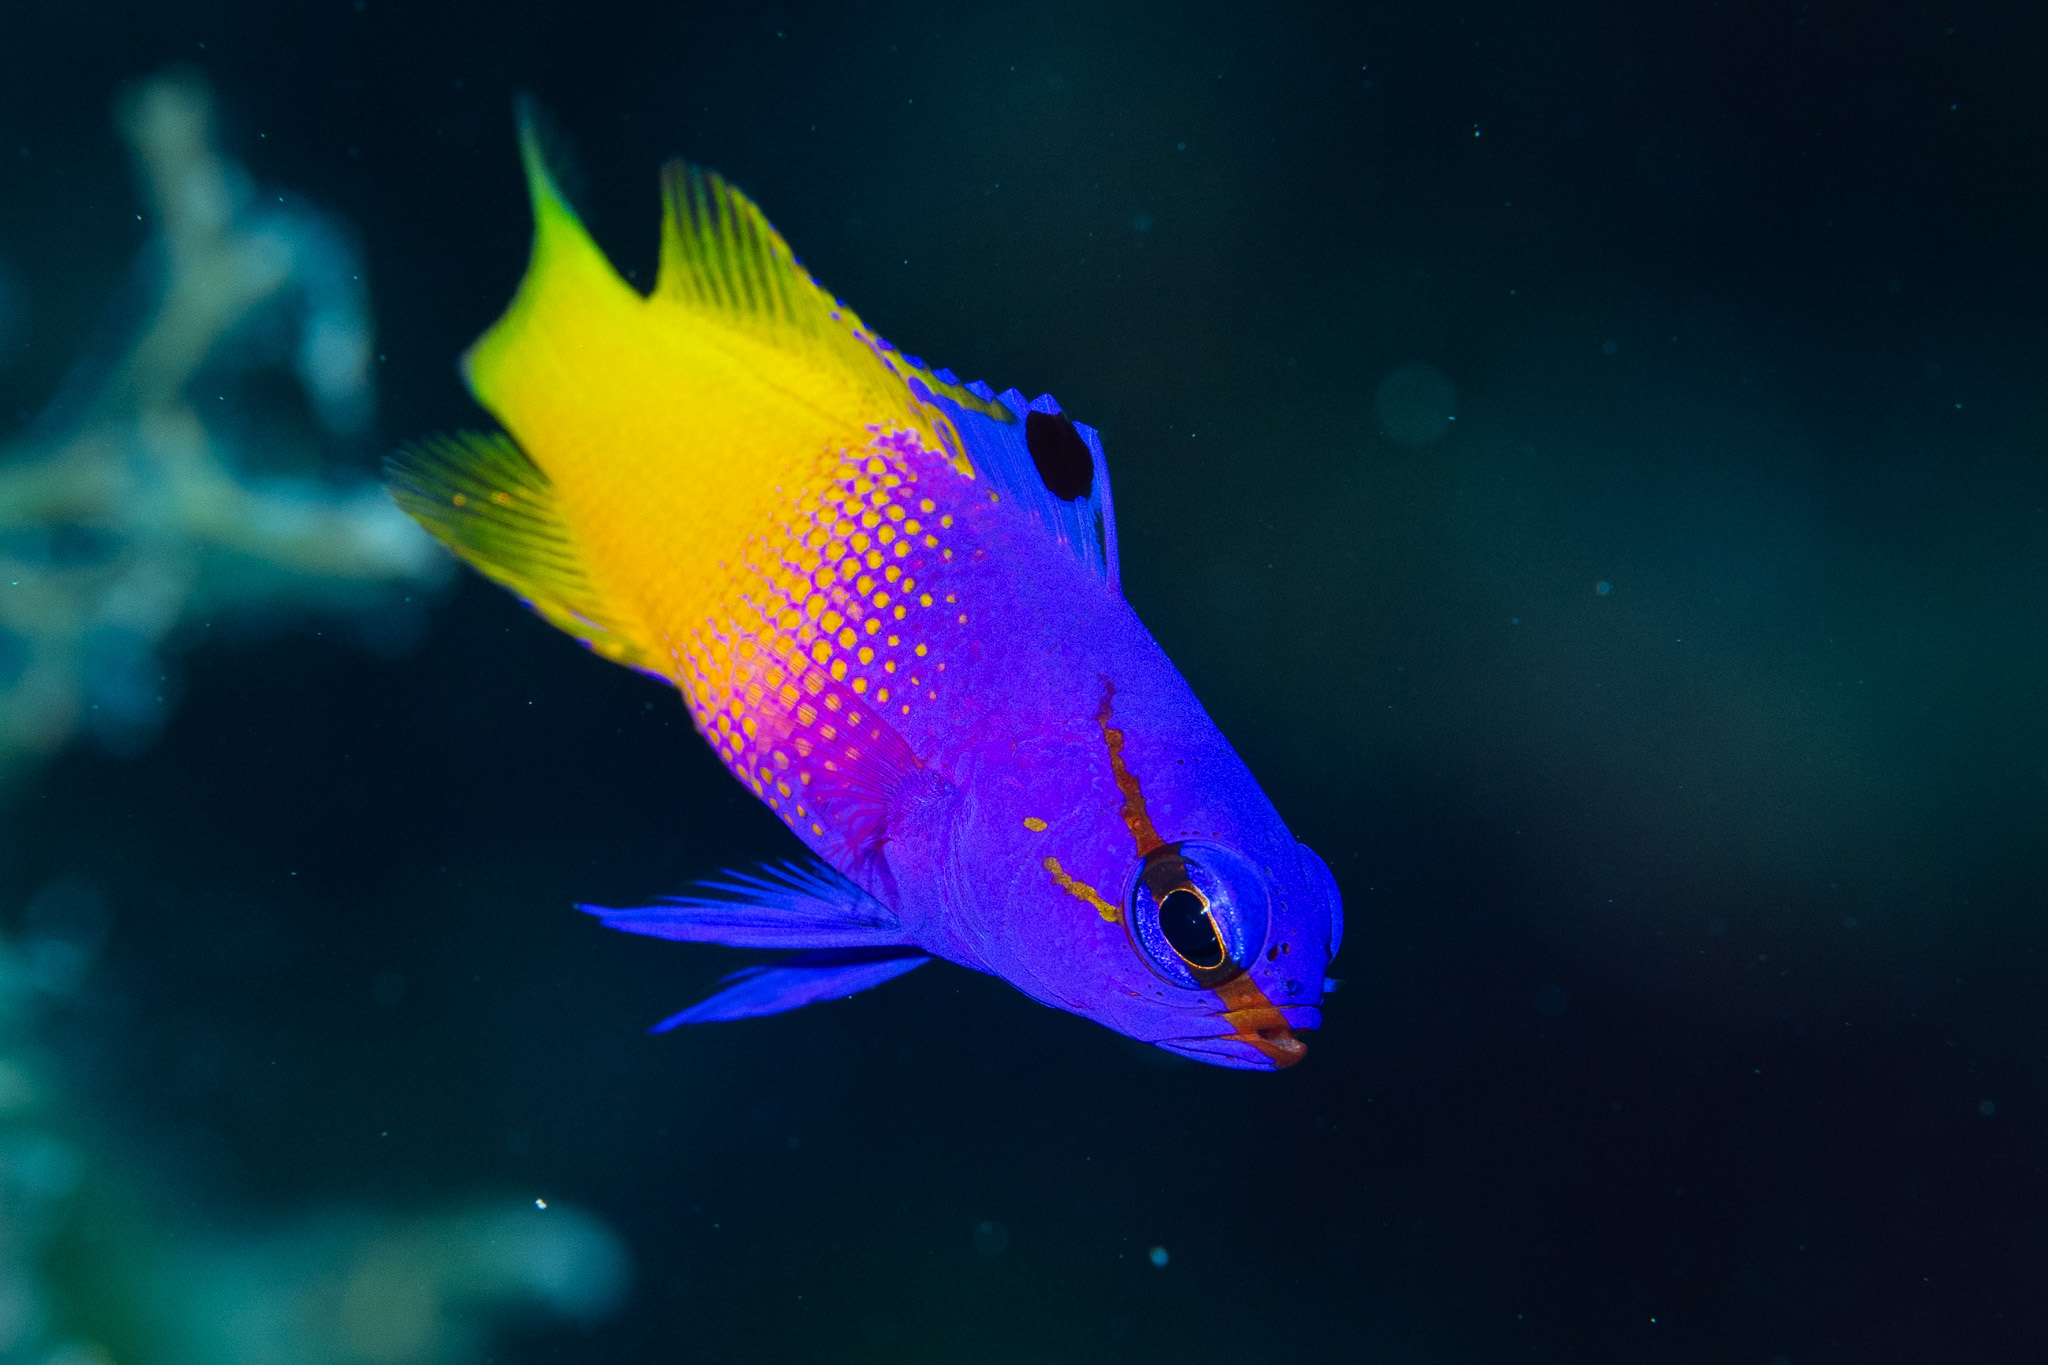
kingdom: Animalia
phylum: Chordata
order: Perciformes
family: Grammatidae
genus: Gramma
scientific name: Gramma loreto
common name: Fairy basslet
